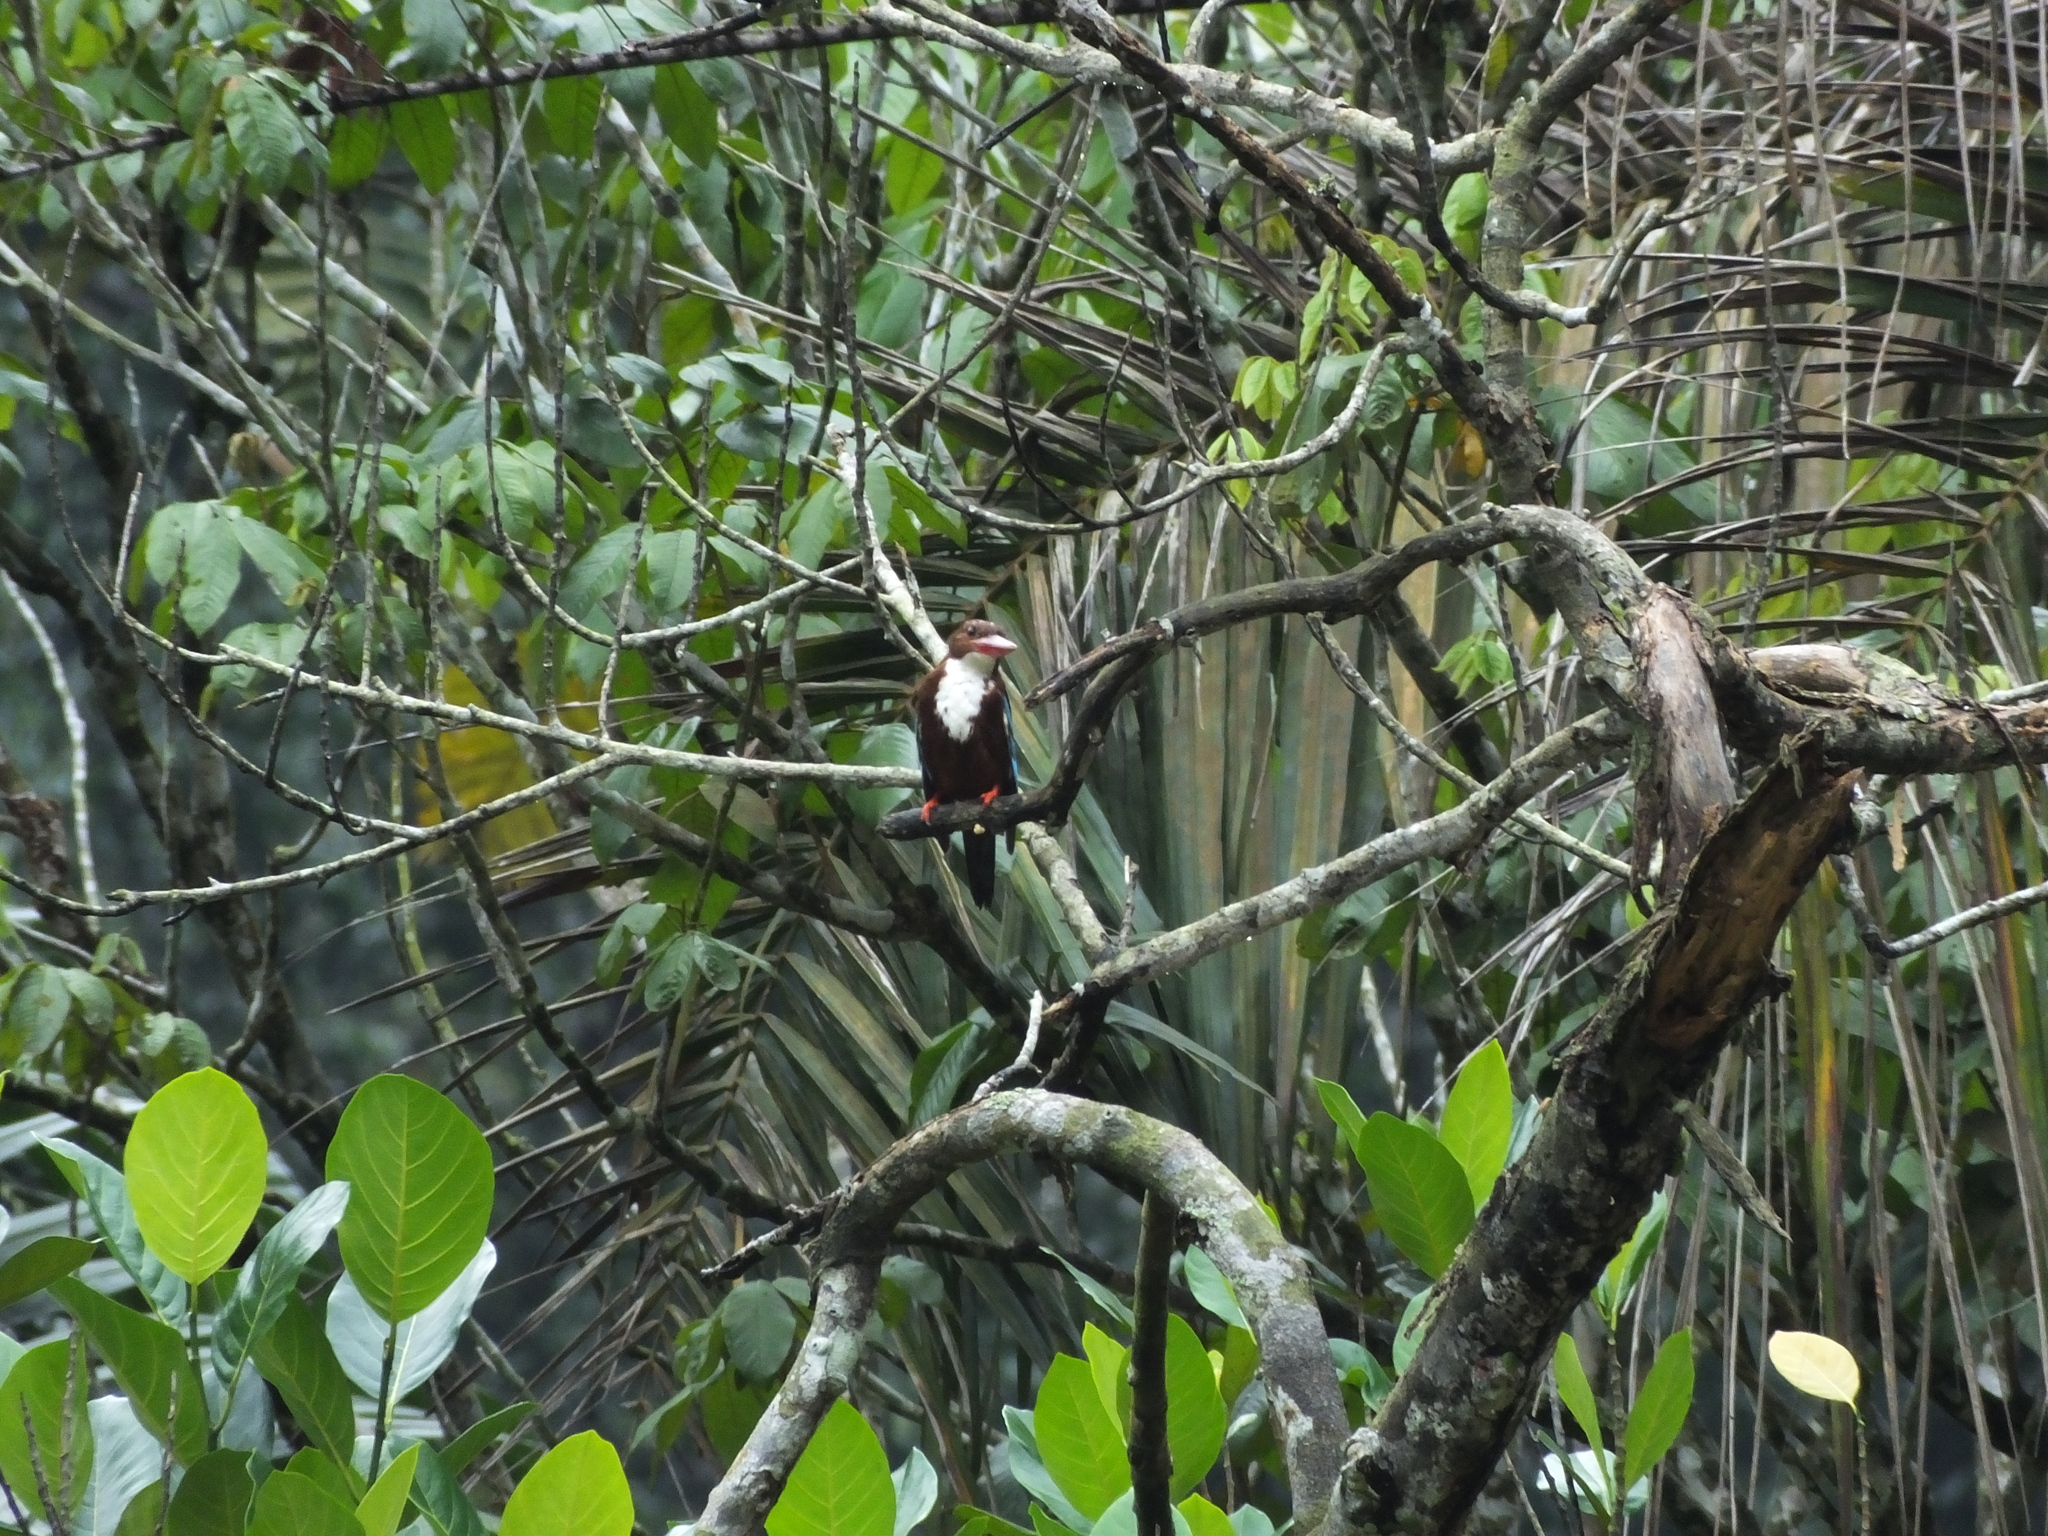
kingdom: Animalia
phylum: Chordata
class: Aves
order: Coraciiformes
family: Alcedinidae
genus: Halcyon
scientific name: Halcyon smyrnensis
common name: White-throated kingfisher
